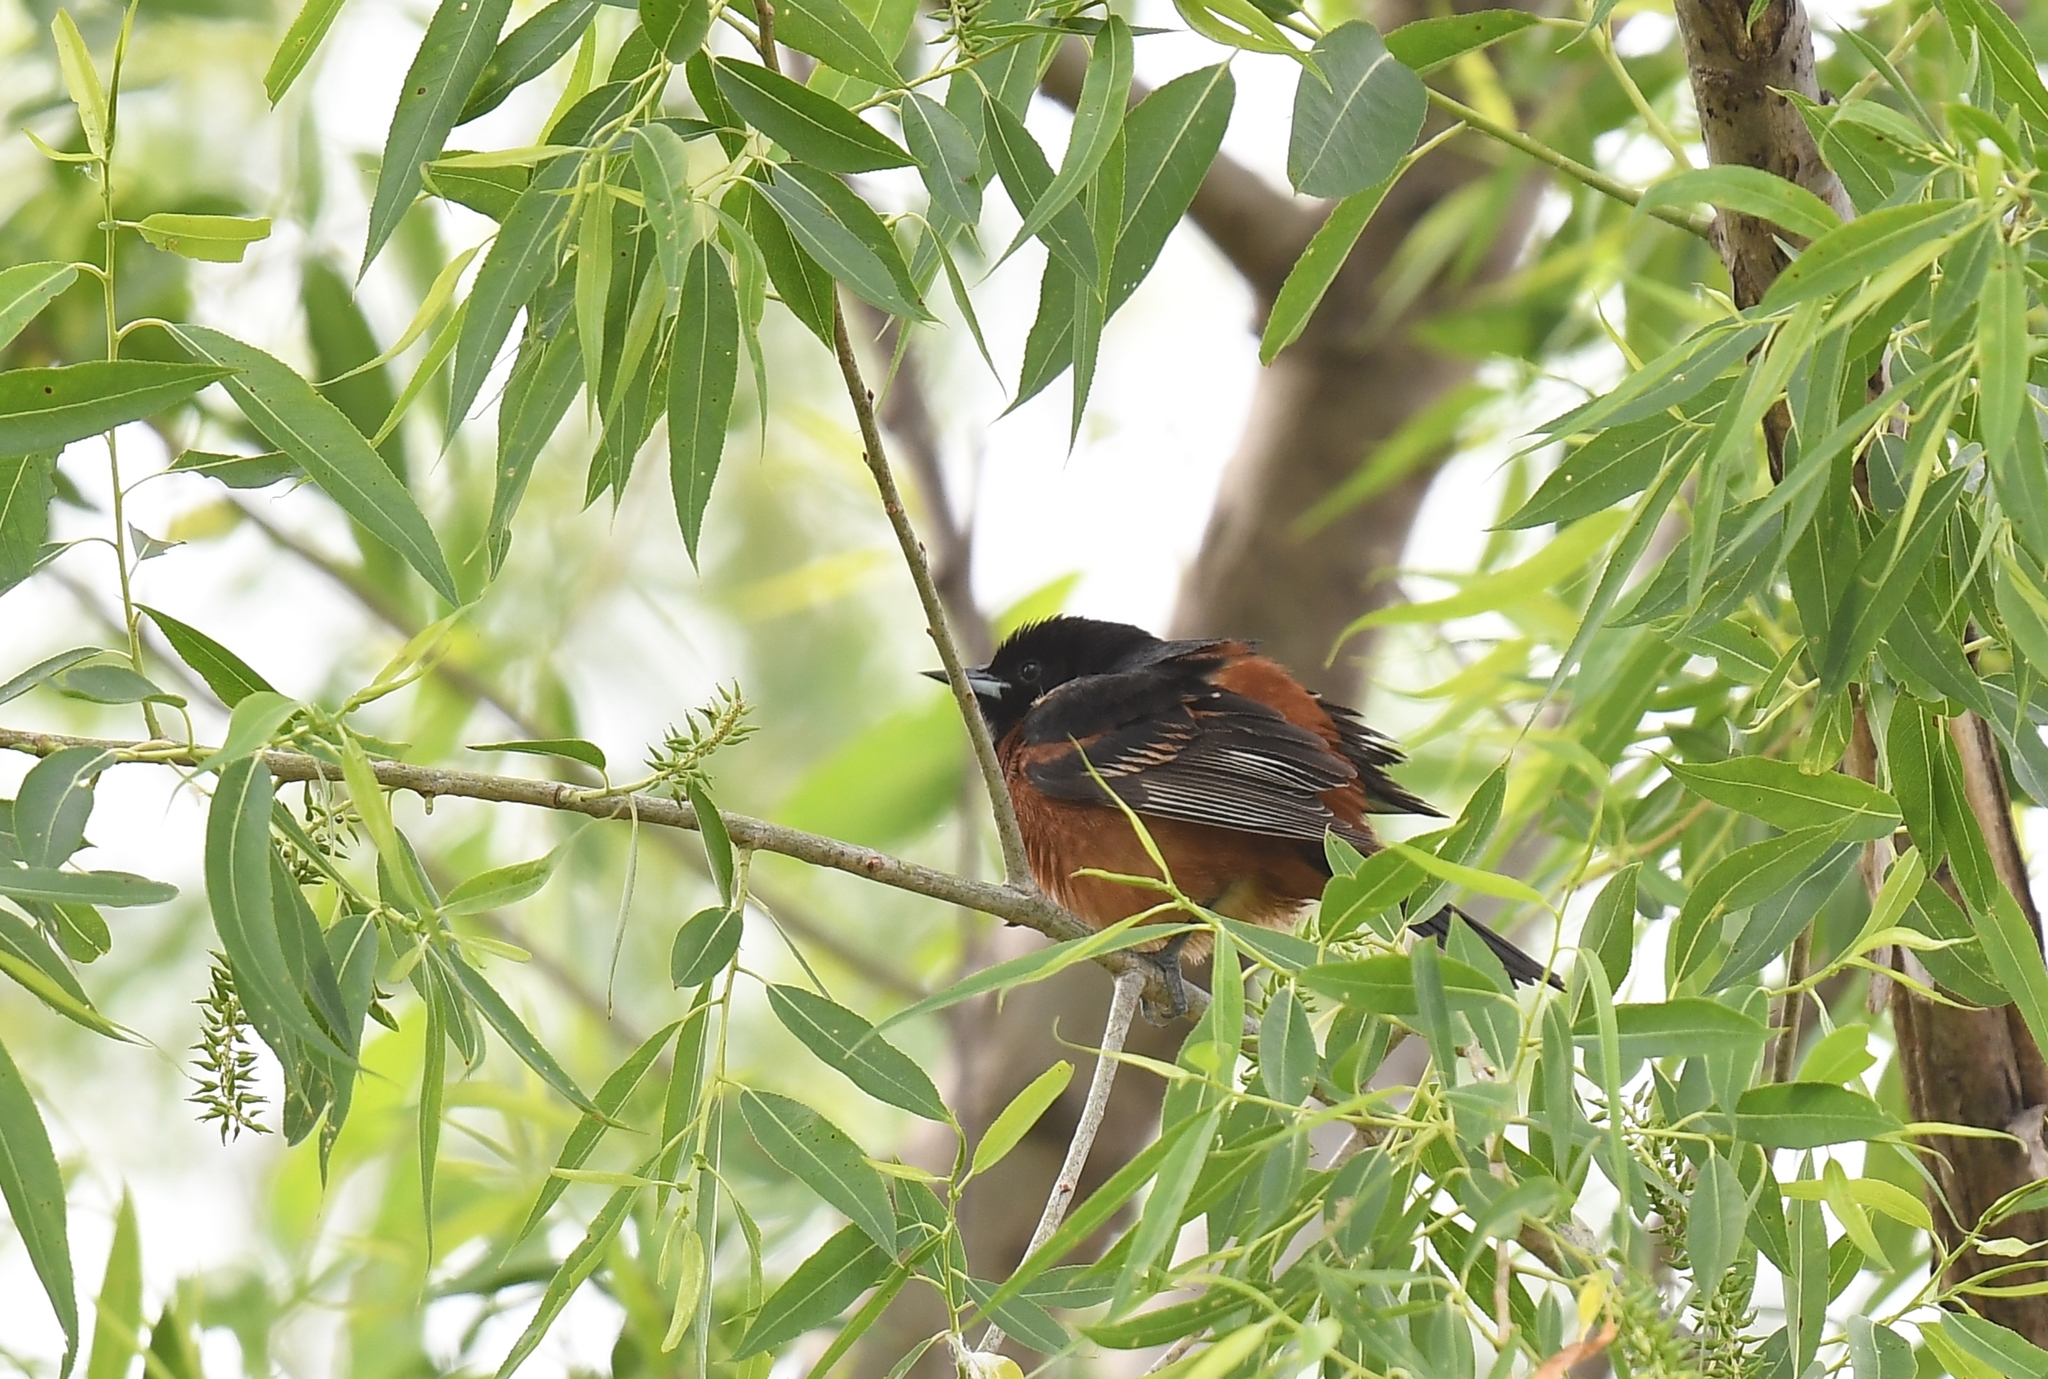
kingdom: Animalia
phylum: Chordata
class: Aves
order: Passeriformes
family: Icteridae
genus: Icterus
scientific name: Icterus spurius
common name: Orchard oriole
